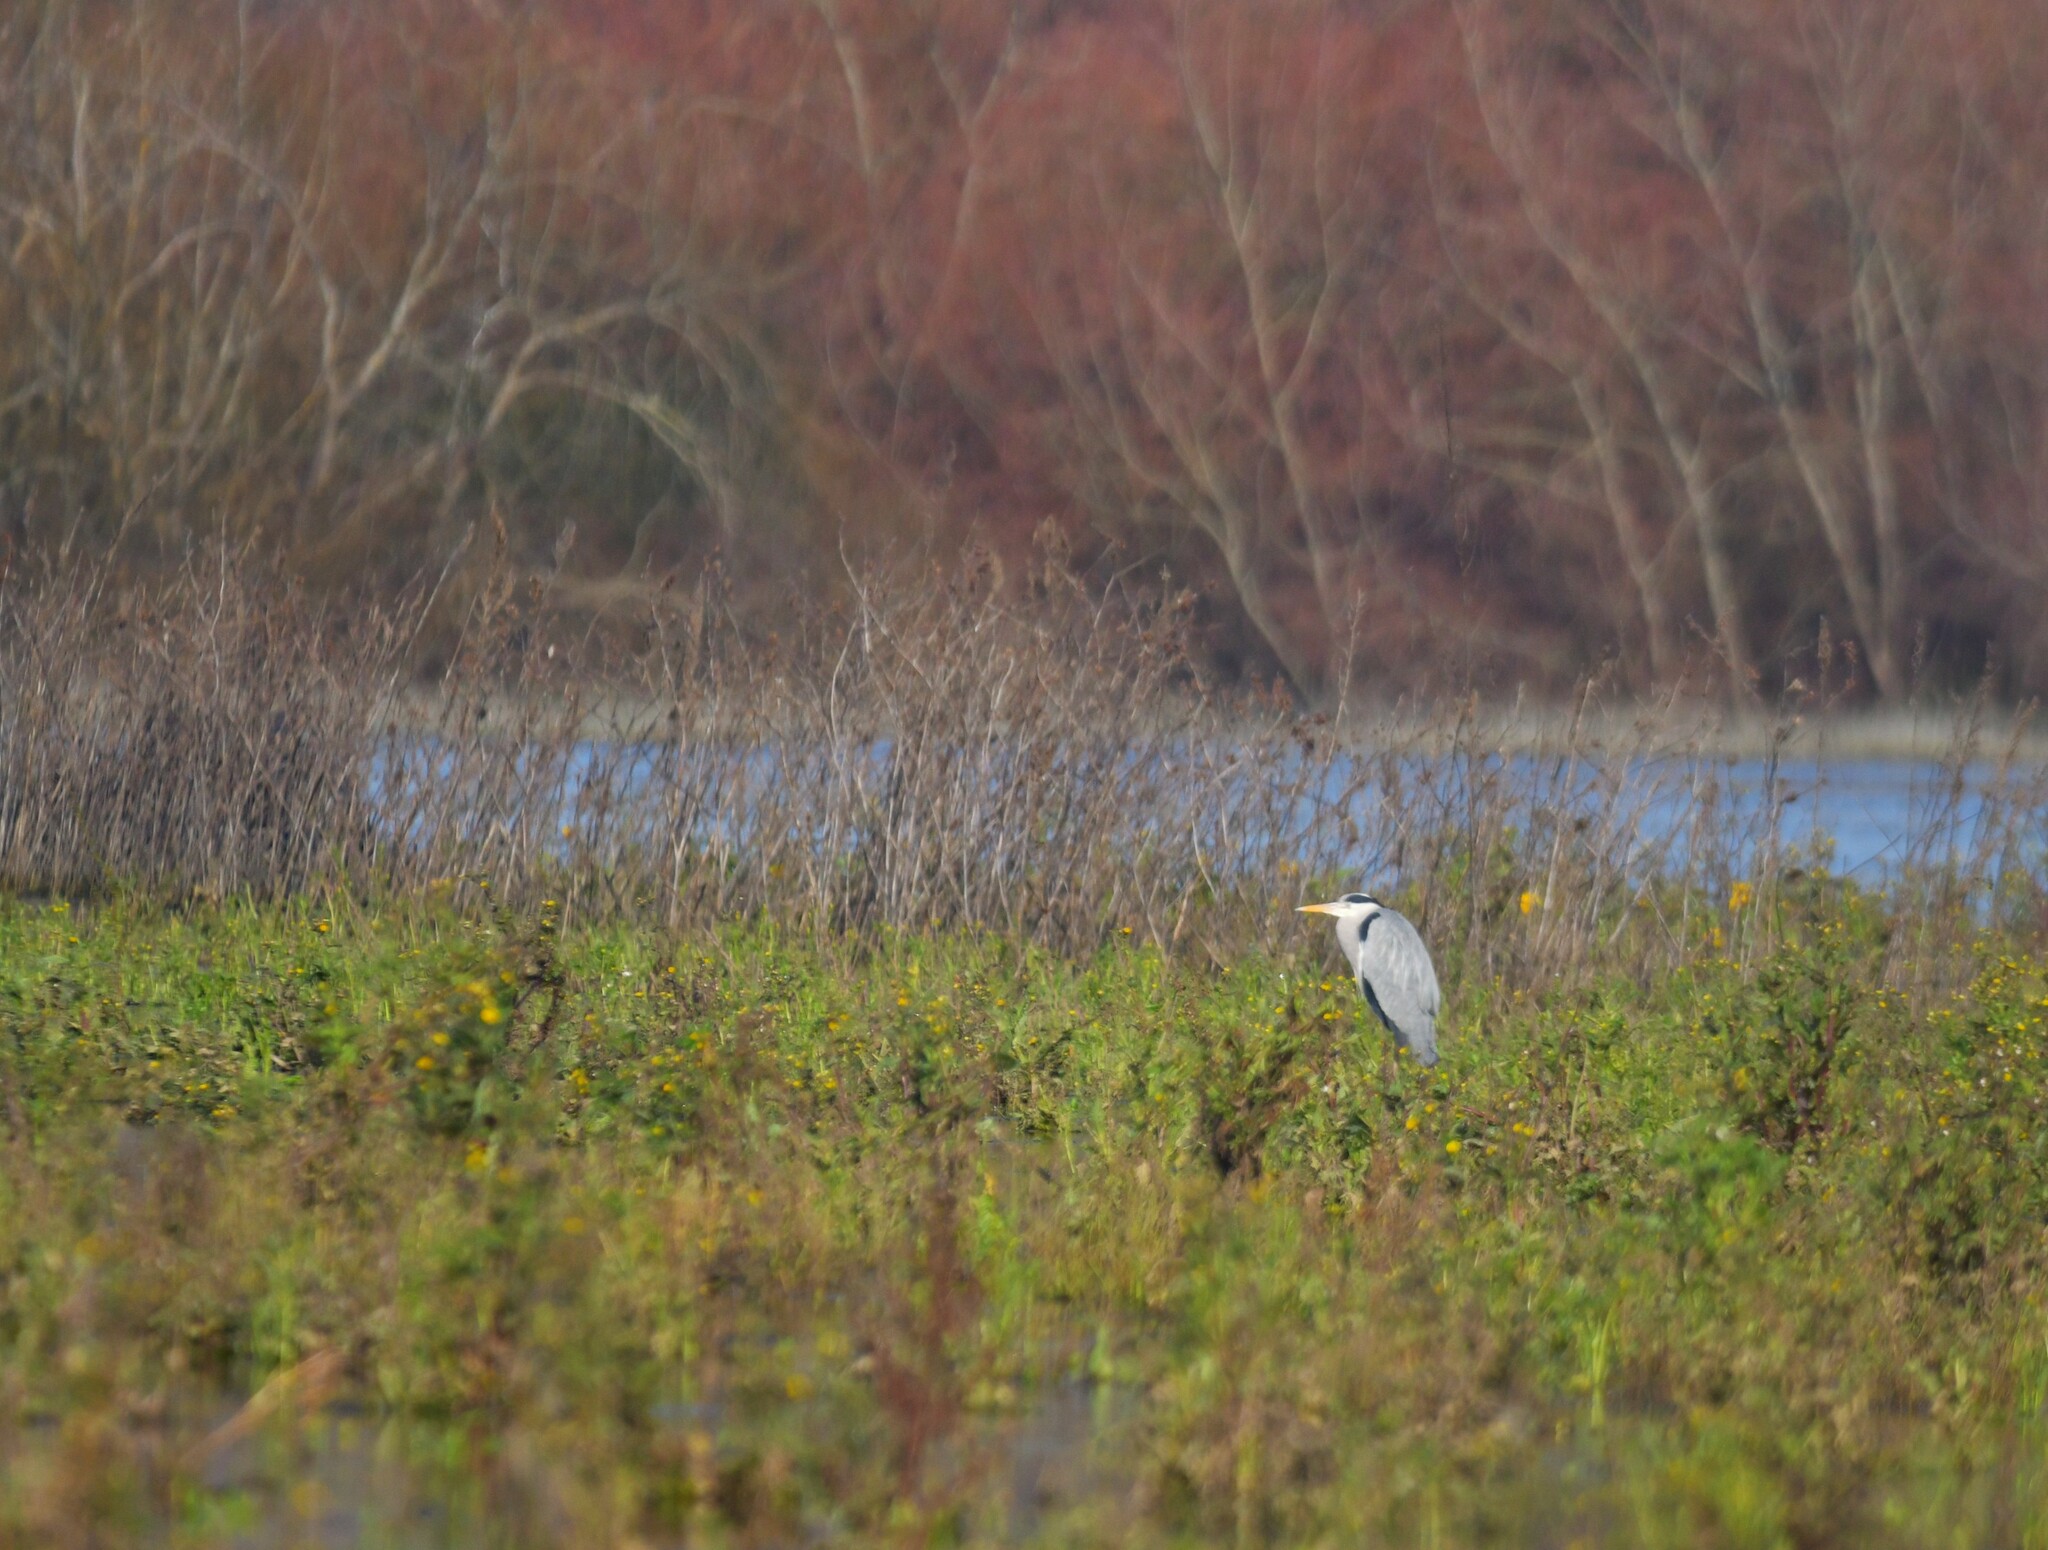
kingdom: Animalia
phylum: Chordata
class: Aves
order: Pelecaniformes
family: Ardeidae
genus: Ardea
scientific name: Ardea cinerea
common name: Grey heron
